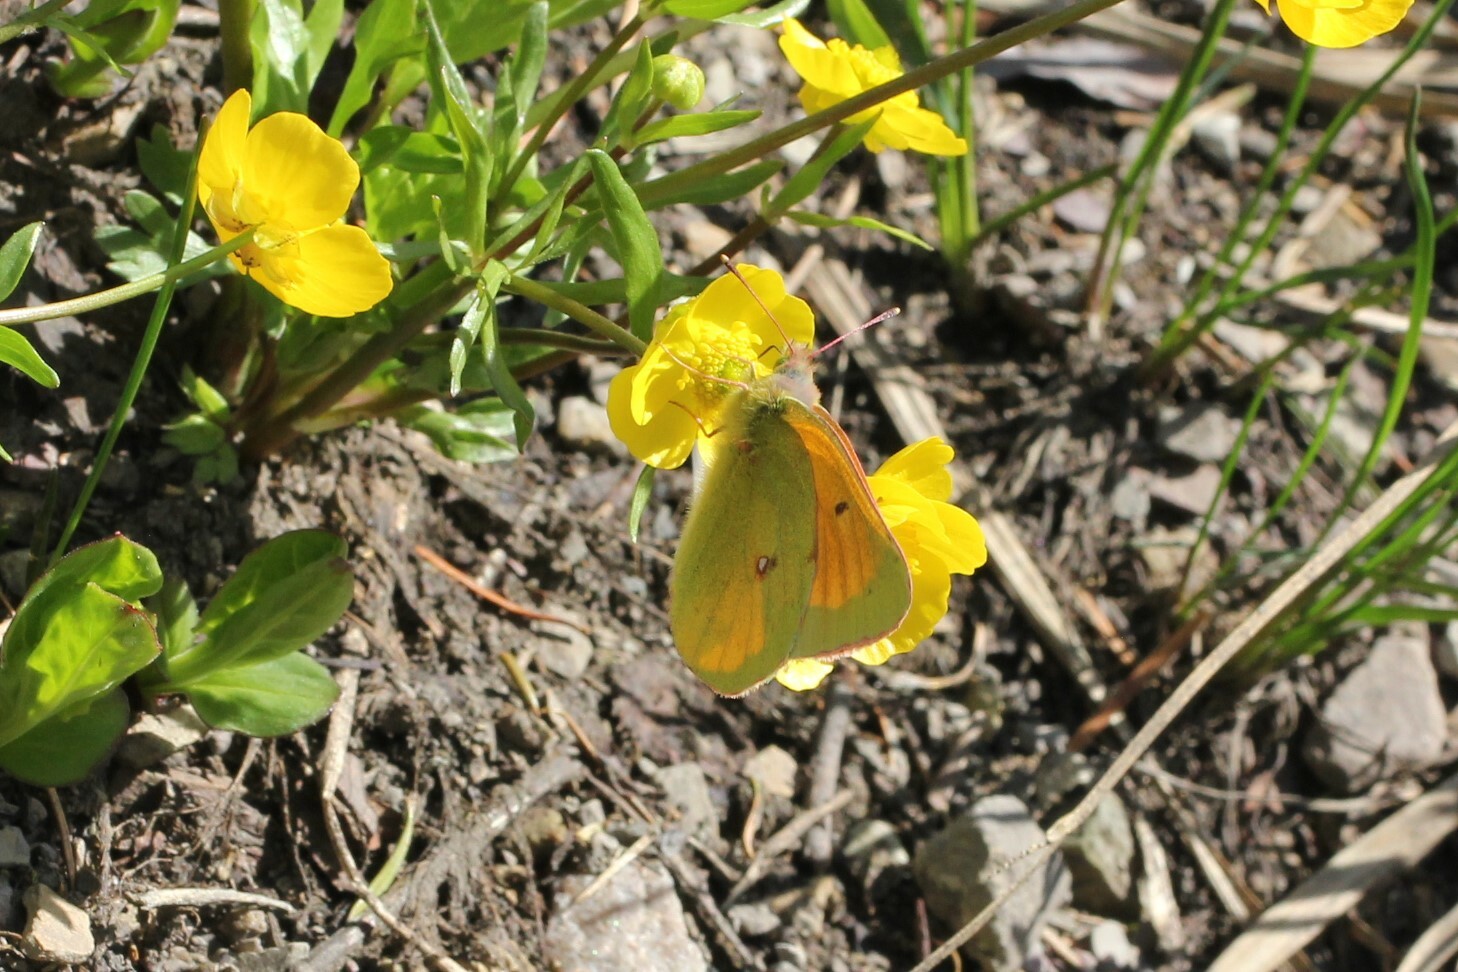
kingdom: Animalia
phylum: Arthropoda
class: Insecta
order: Lepidoptera
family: Pieridae
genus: Colias
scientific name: Colias
